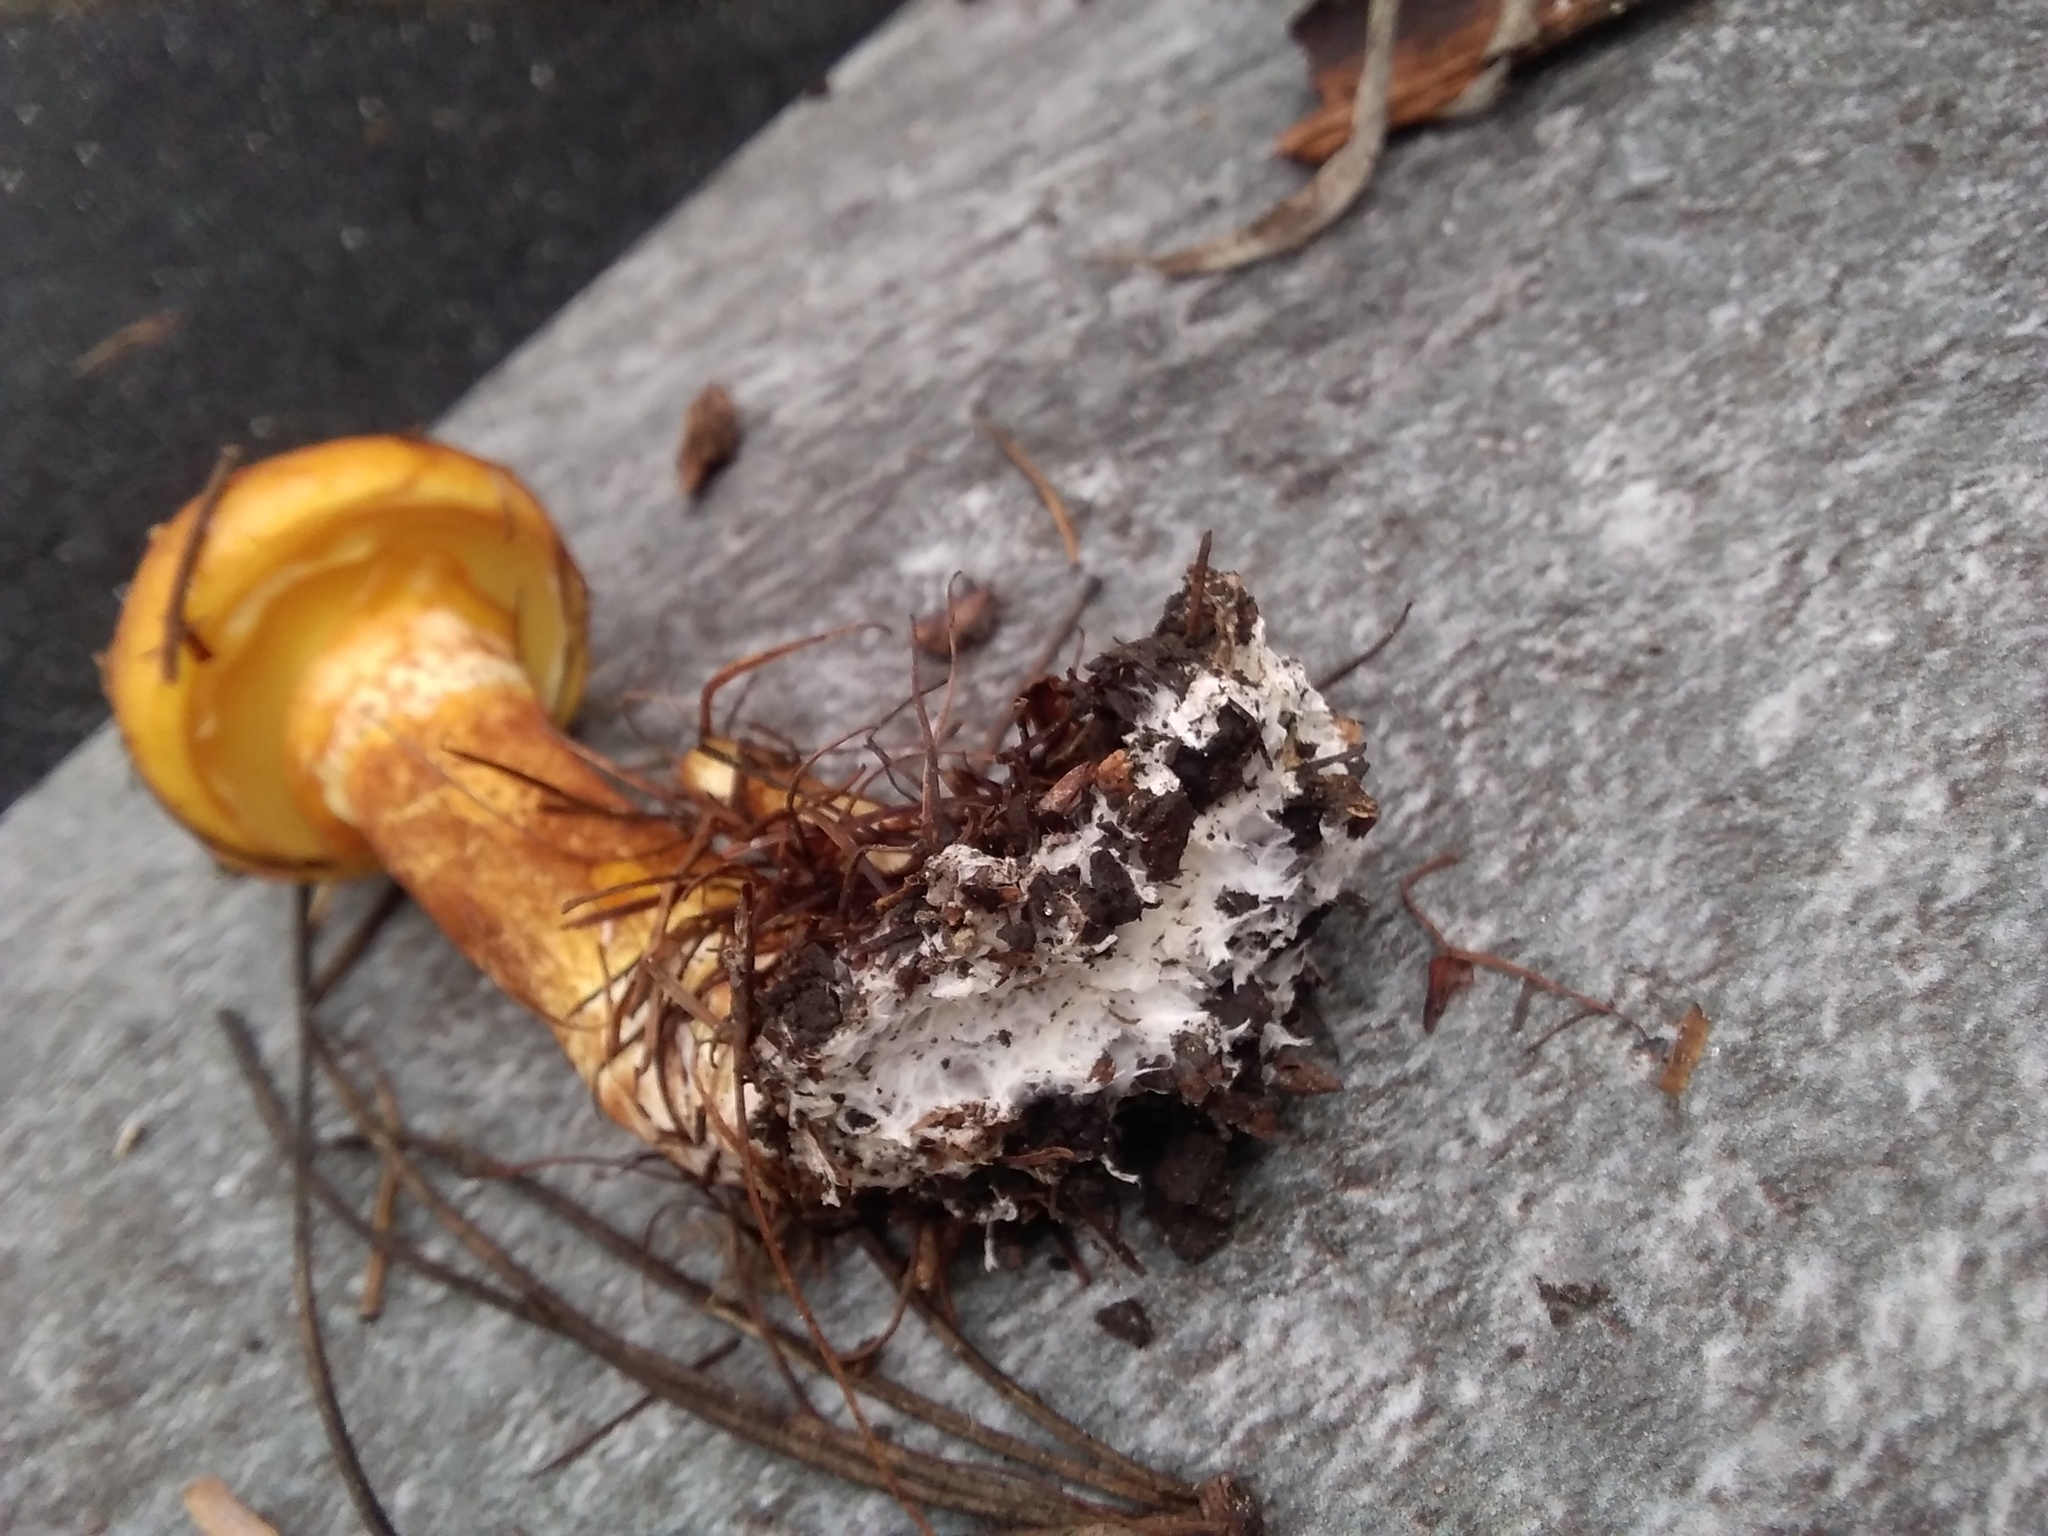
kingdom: Fungi
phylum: Basidiomycota
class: Agaricomycetes
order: Boletales
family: Suillaceae
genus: Suillus
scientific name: Suillus grevillei
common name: Larch bolete
